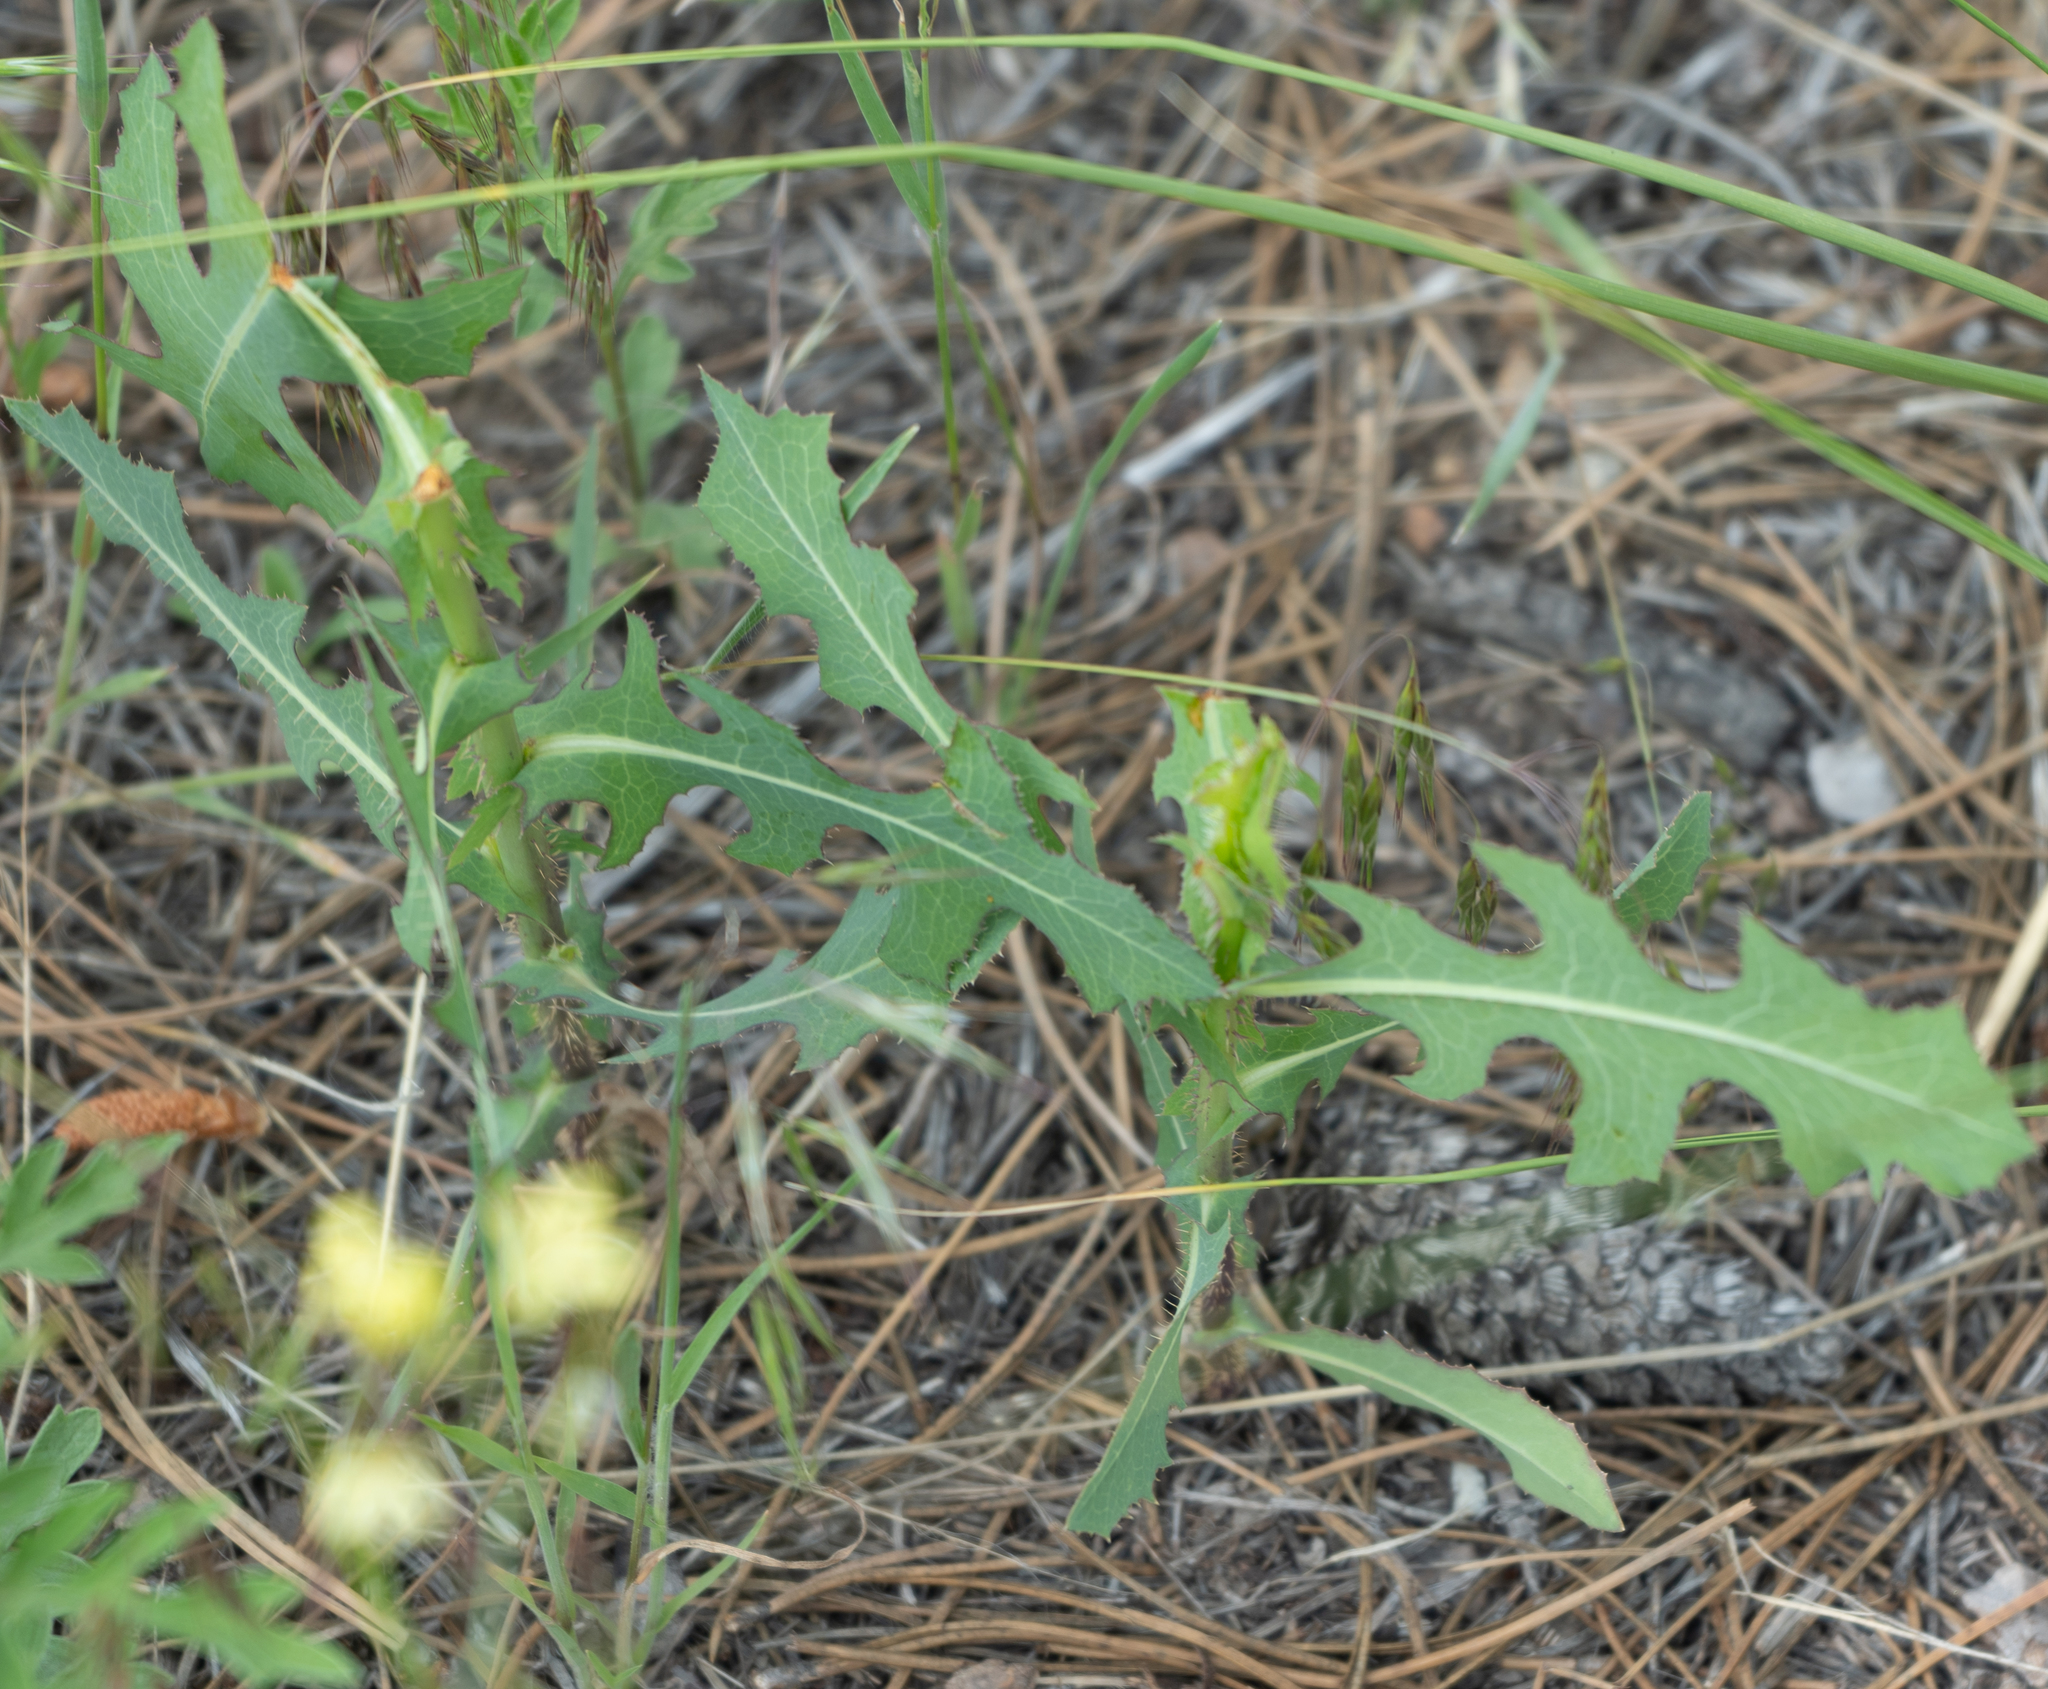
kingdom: Plantae
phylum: Tracheophyta
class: Magnoliopsida
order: Asterales
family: Asteraceae
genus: Lactuca
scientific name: Lactuca serriola
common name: Prickly lettuce
